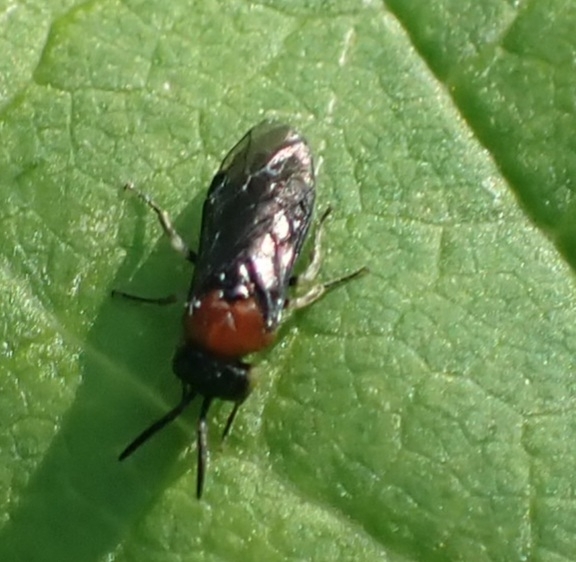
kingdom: Animalia
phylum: Arthropoda
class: Insecta
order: Hymenoptera
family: Tenthredinidae
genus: Eutomostethus
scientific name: Eutomostethus ephippium
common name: Tenthredid wasp
